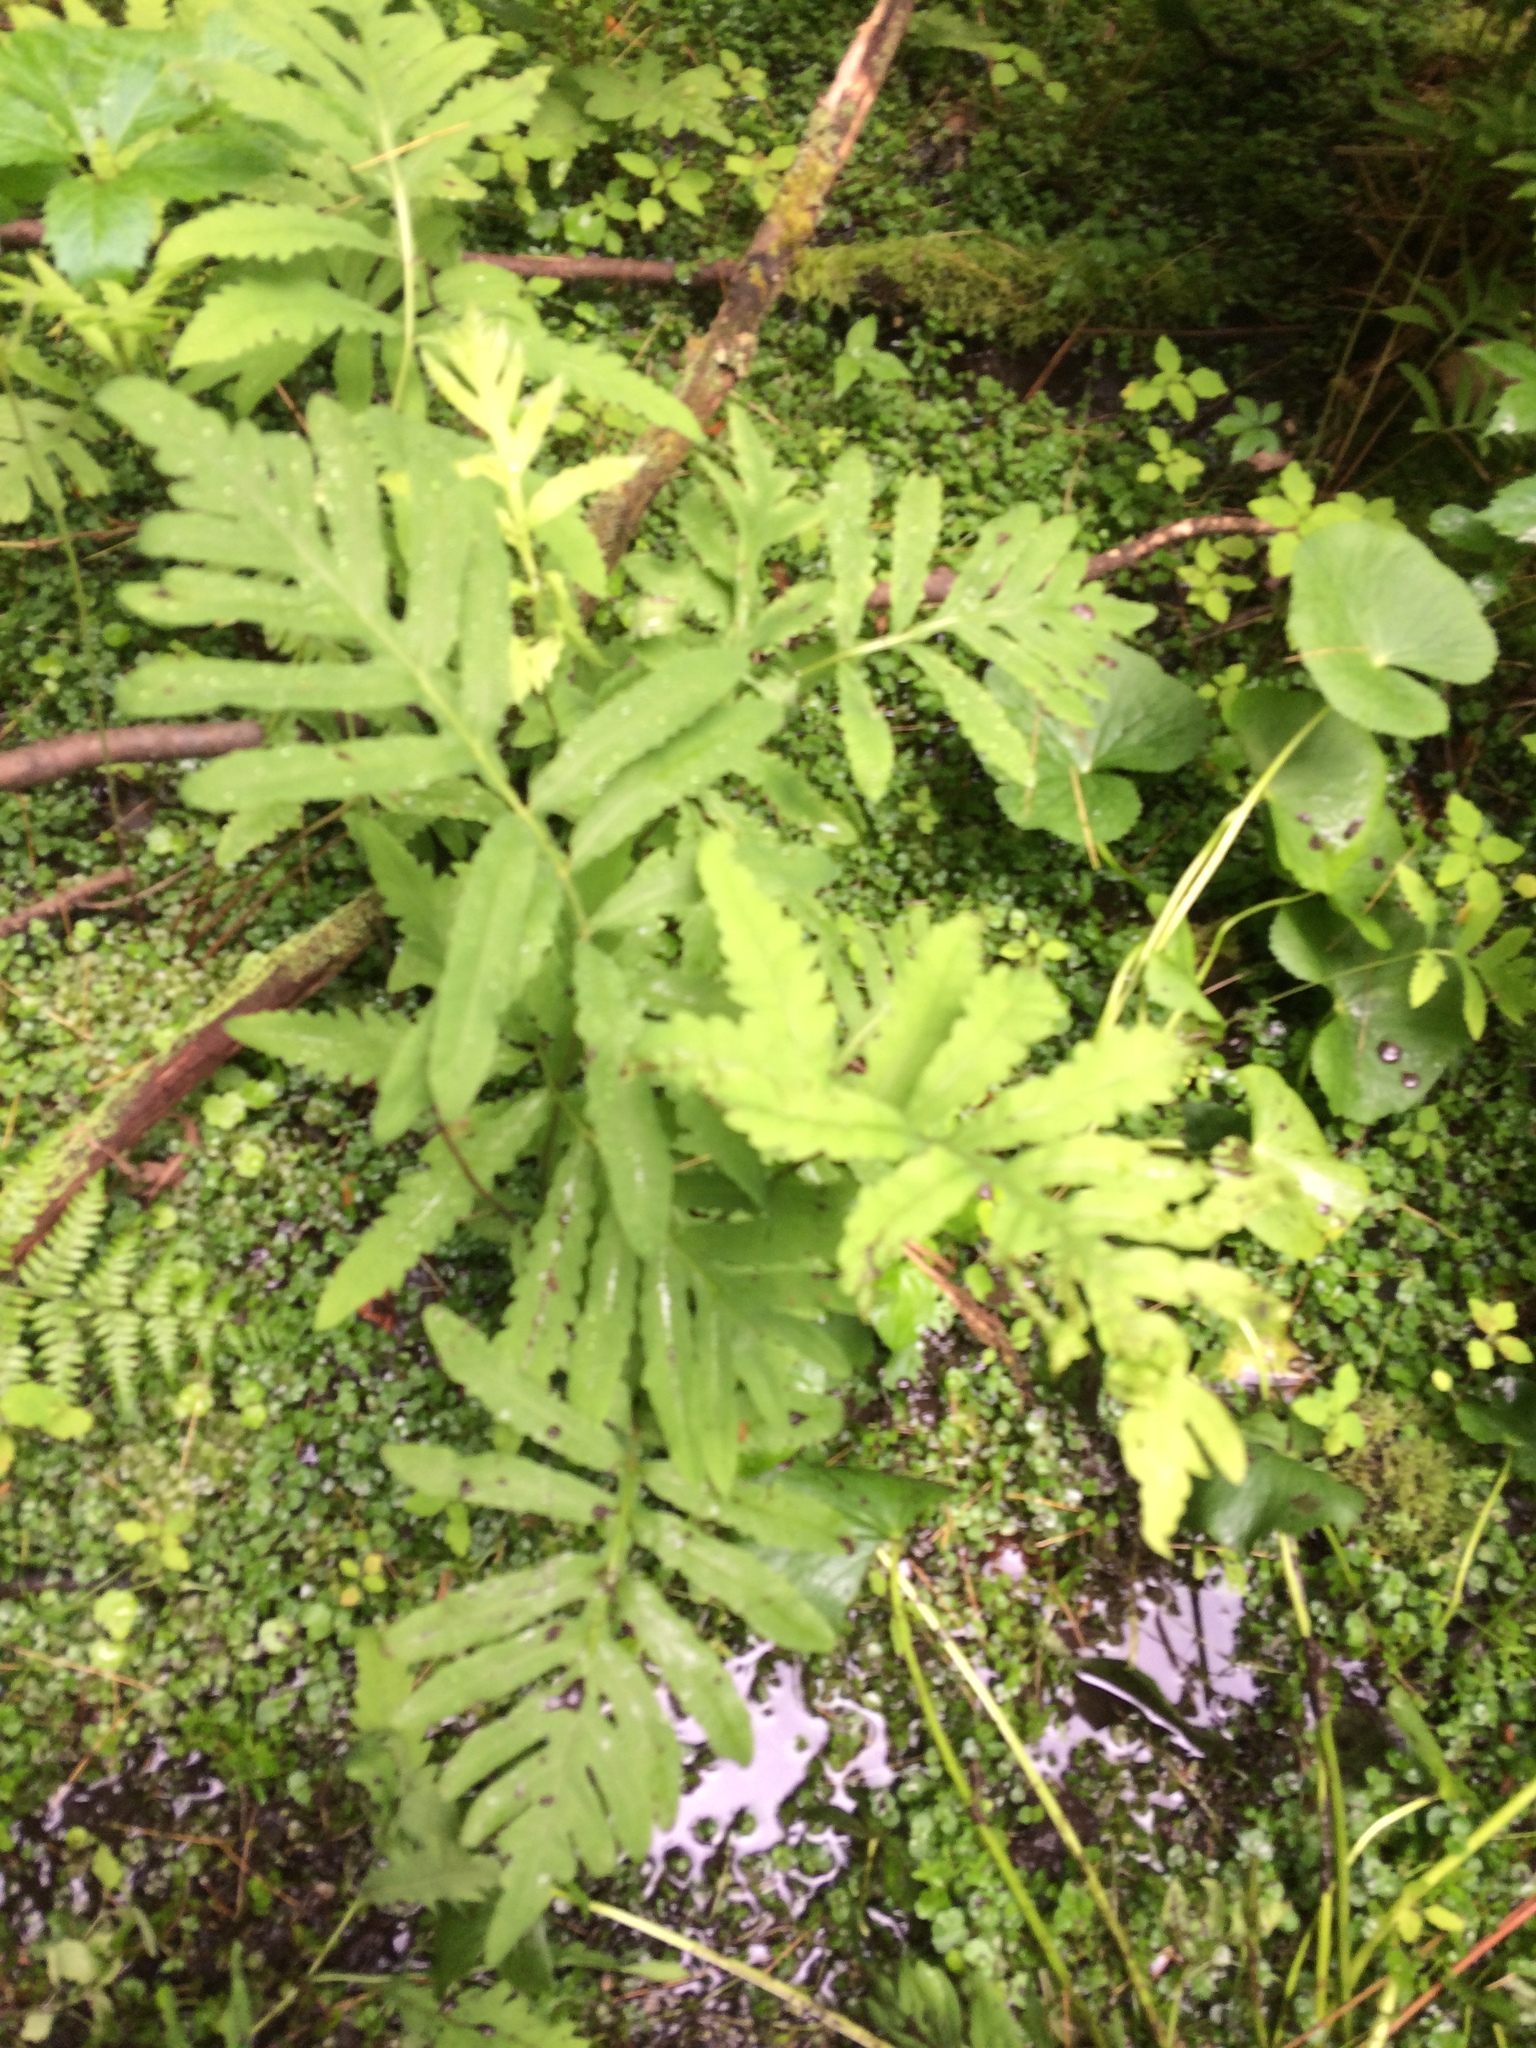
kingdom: Plantae
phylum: Tracheophyta
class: Polypodiopsida
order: Polypodiales
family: Onocleaceae
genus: Onoclea
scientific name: Onoclea sensibilis
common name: Sensitive fern
